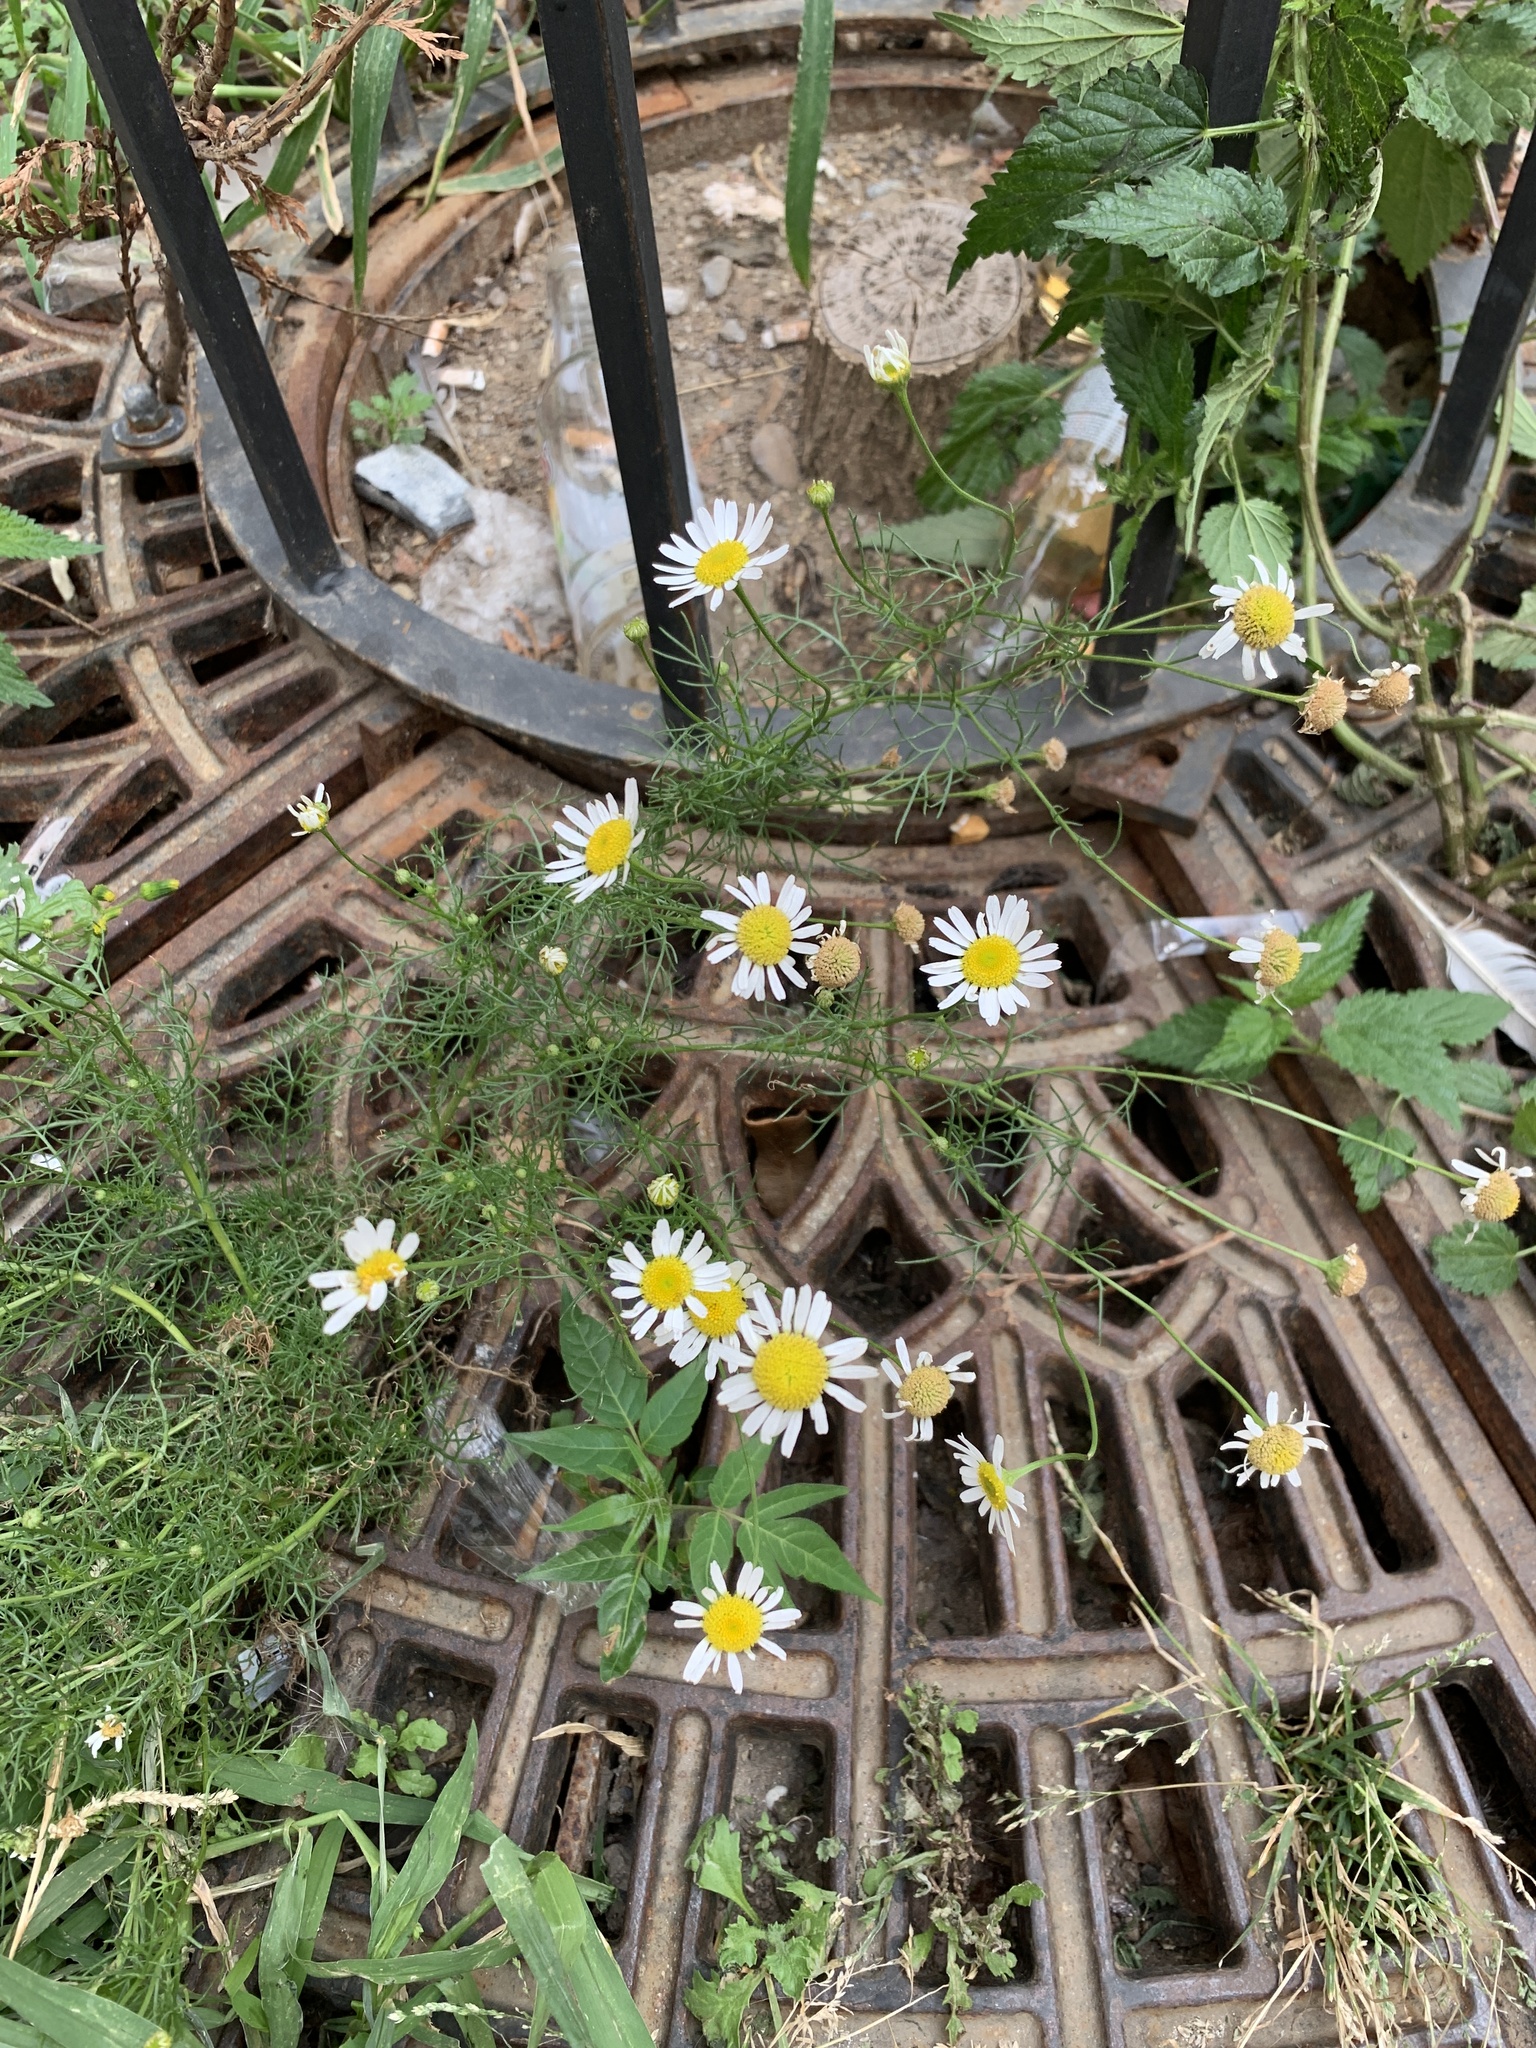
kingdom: Plantae
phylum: Tracheophyta
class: Magnoliopsida
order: Asterales
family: Asteraceae
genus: Tripleurospermum
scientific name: Tripleurospermum inodorum
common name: Scentless mayweed
